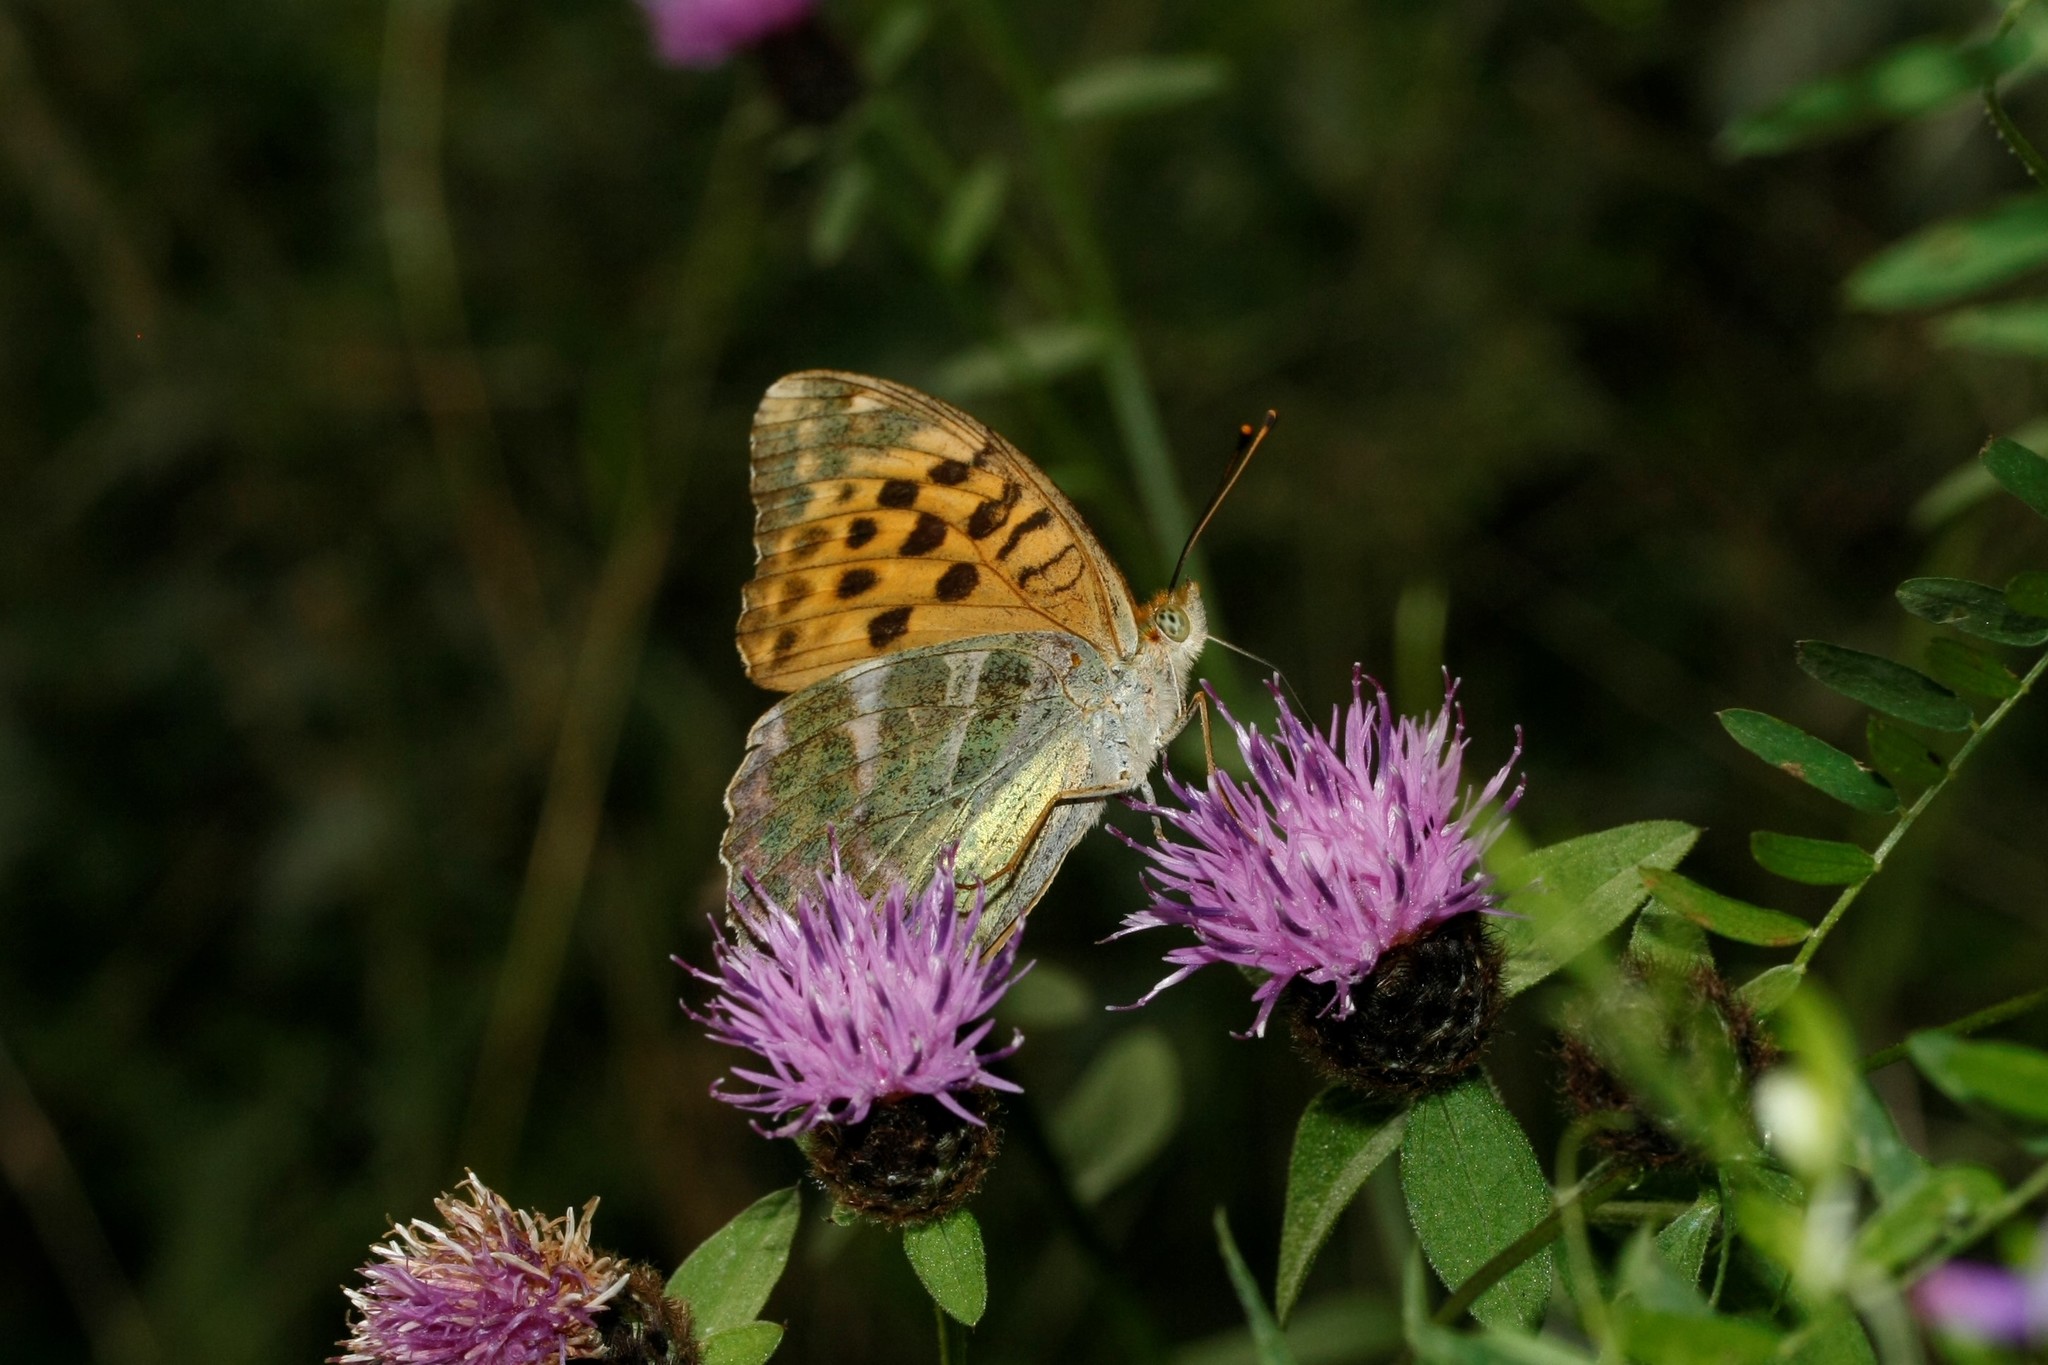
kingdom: Animalia
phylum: Arthropoda
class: Insecta
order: Lepidoptera
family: Nymphalidae
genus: Argynnis
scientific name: Argynnis paphia
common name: Silver-washed fritillary
